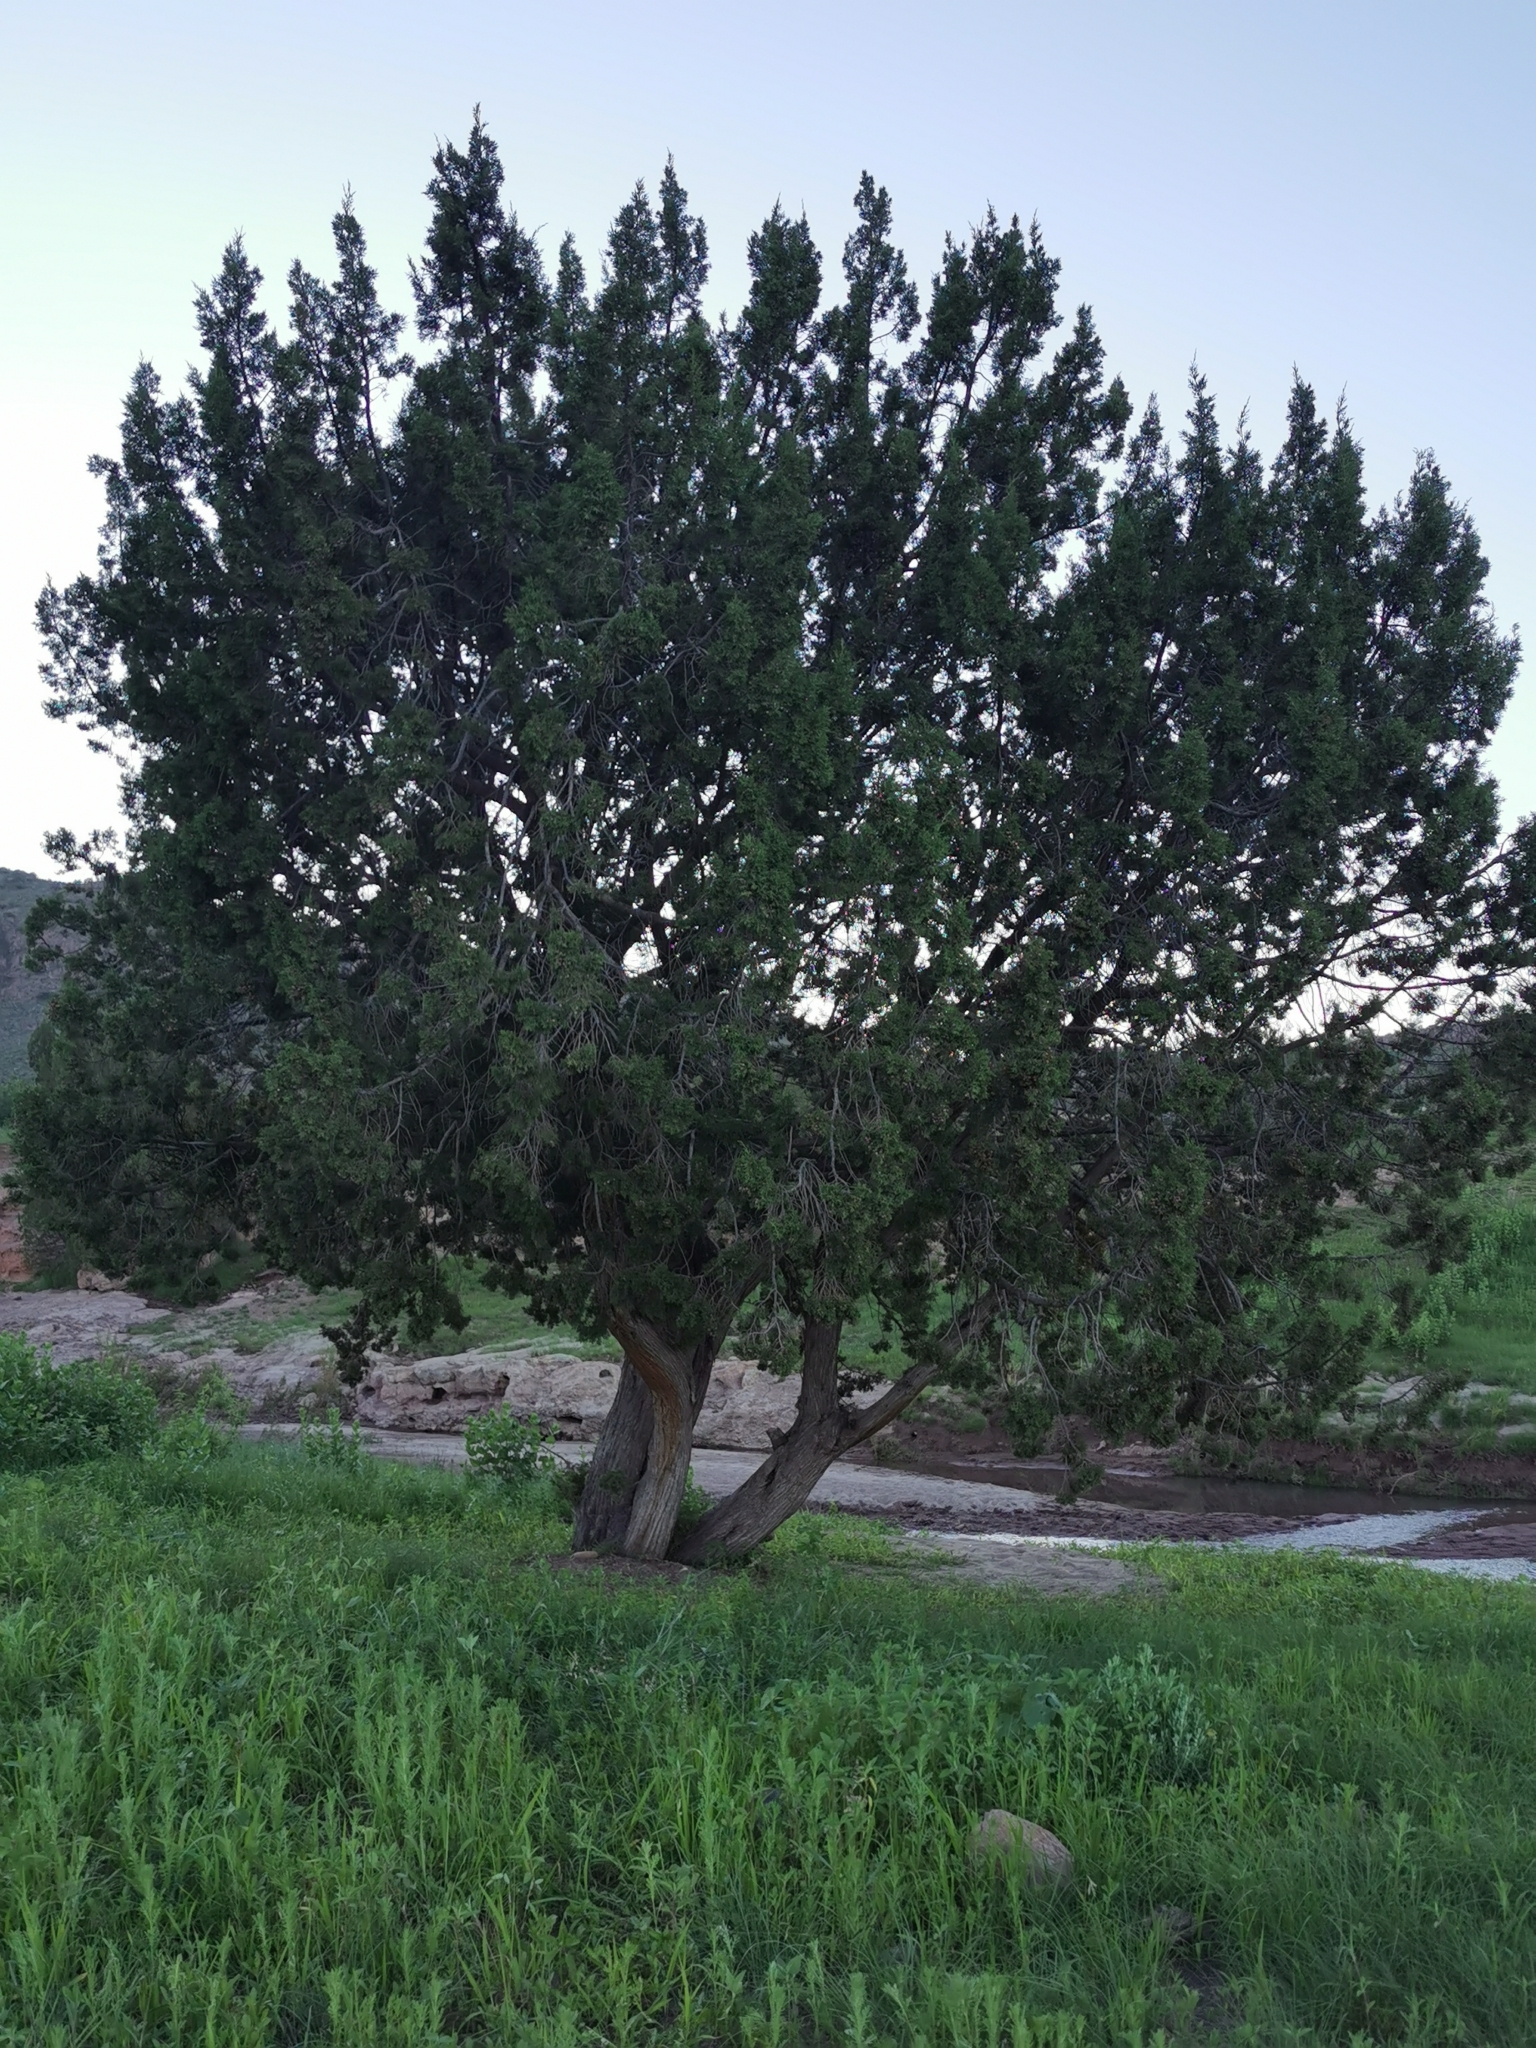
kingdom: Plantae
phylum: Tracheophyta
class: Pinopsida
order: Pinales
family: Cupressaceae
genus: Juniperus
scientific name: Juniperus coahuilensis
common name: Roseberry
